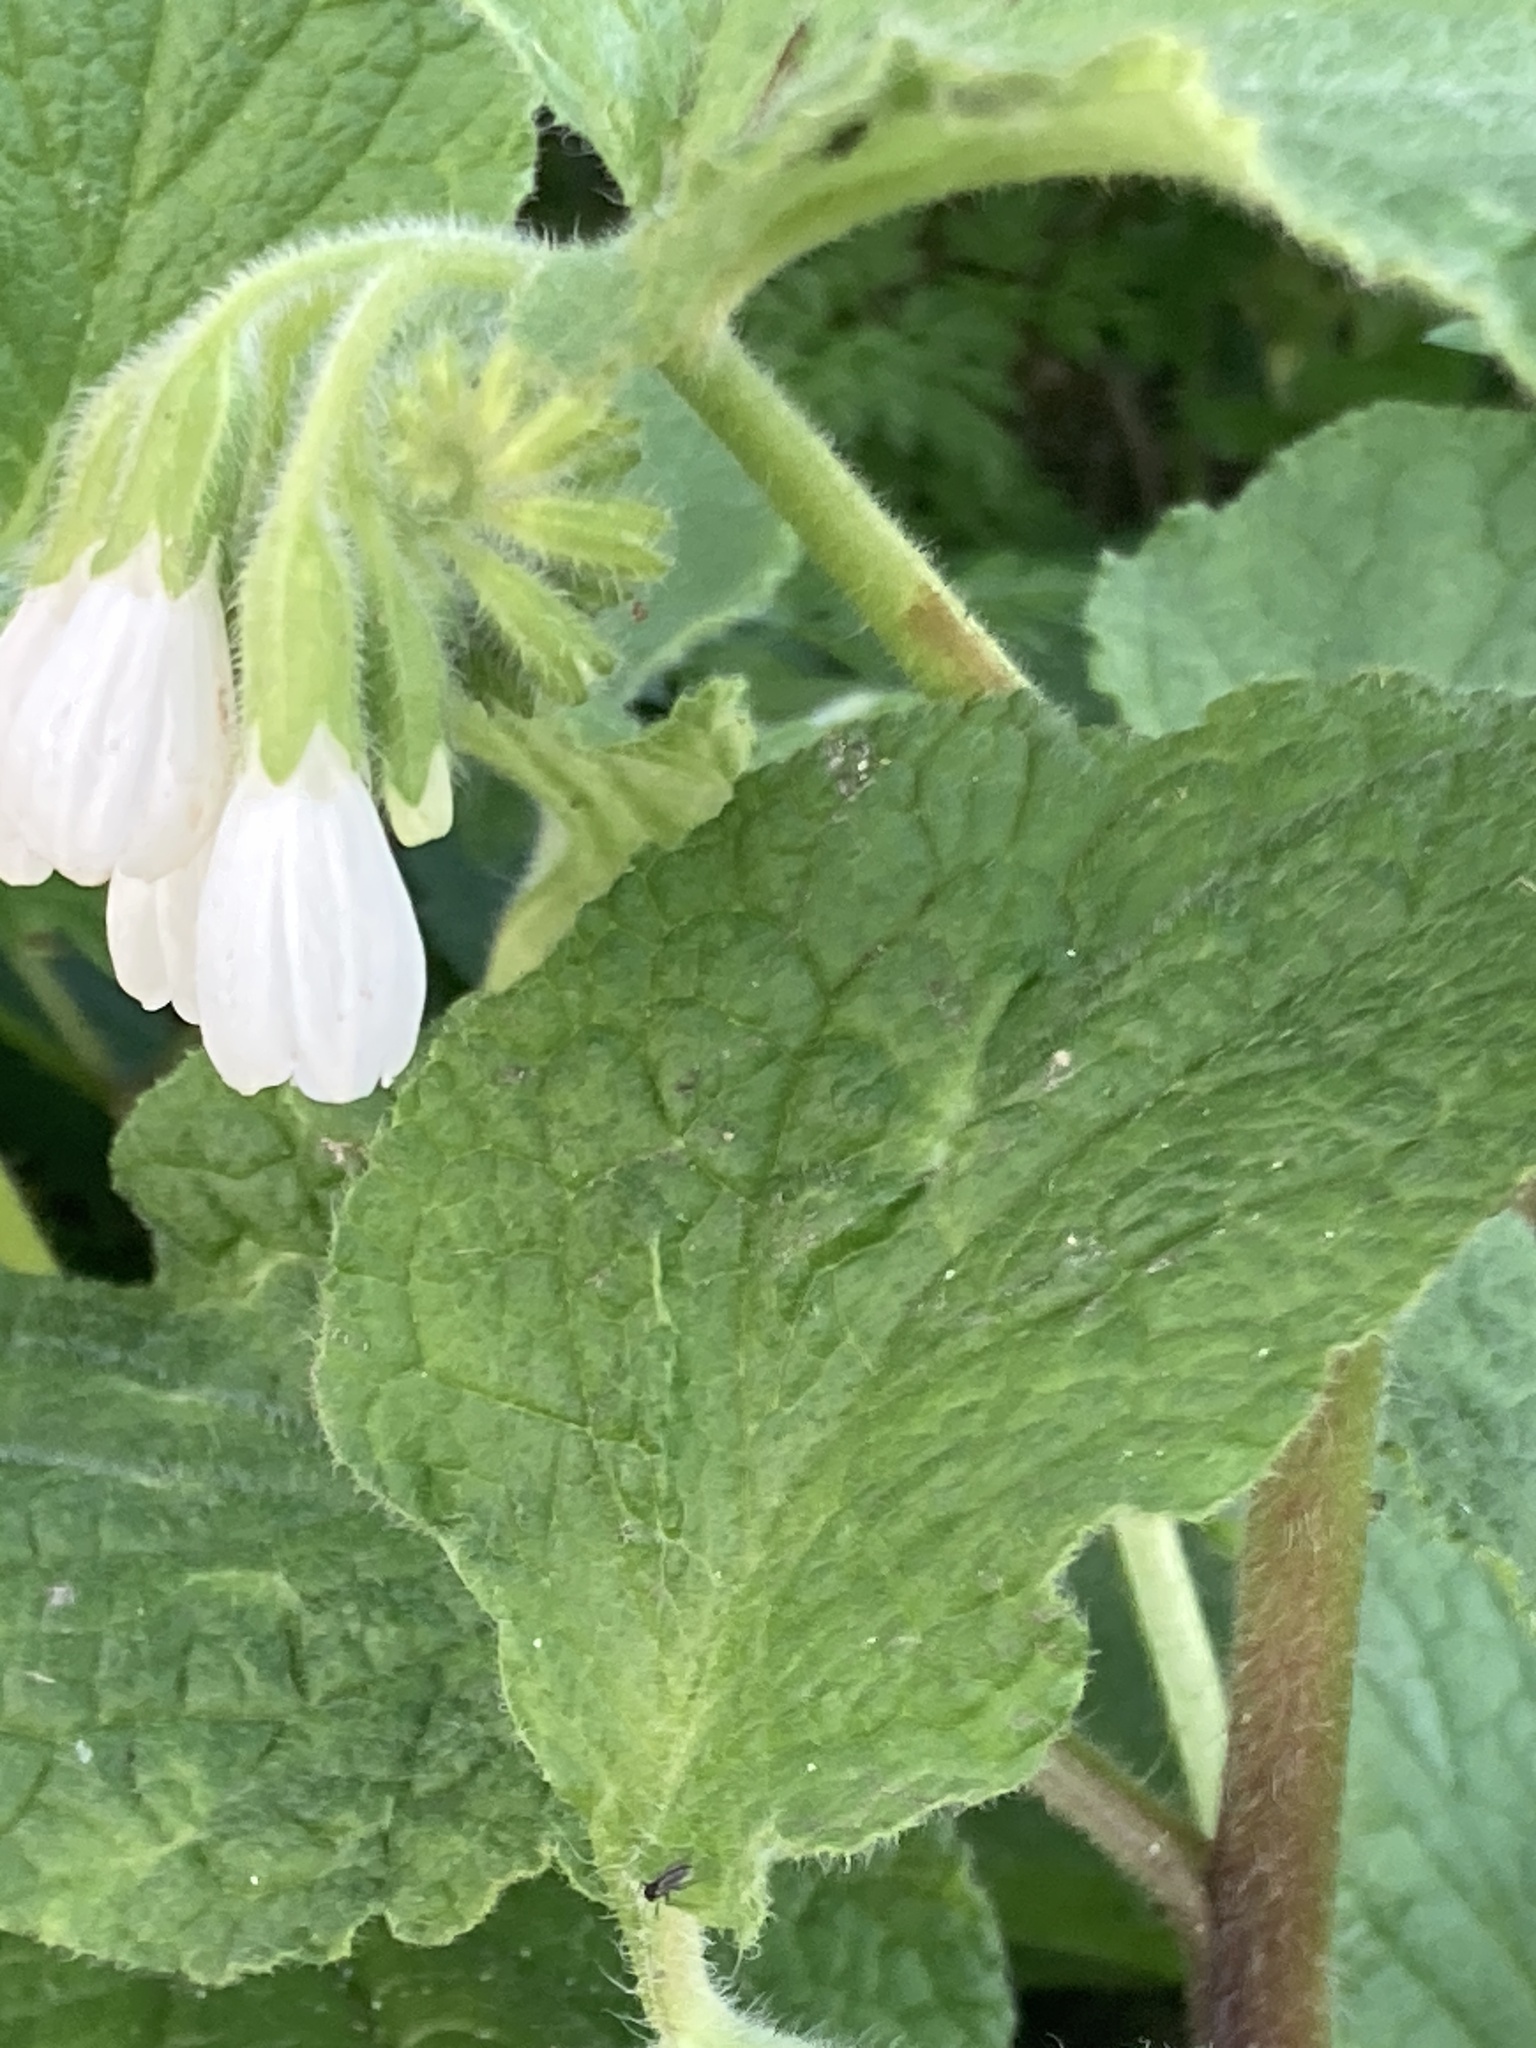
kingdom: Plantae
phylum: Tracheophyta
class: Magnoliopsida
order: Boraginales
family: Boraginaceae
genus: Symphytum
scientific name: Symphytum orientale
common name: White comfrey
